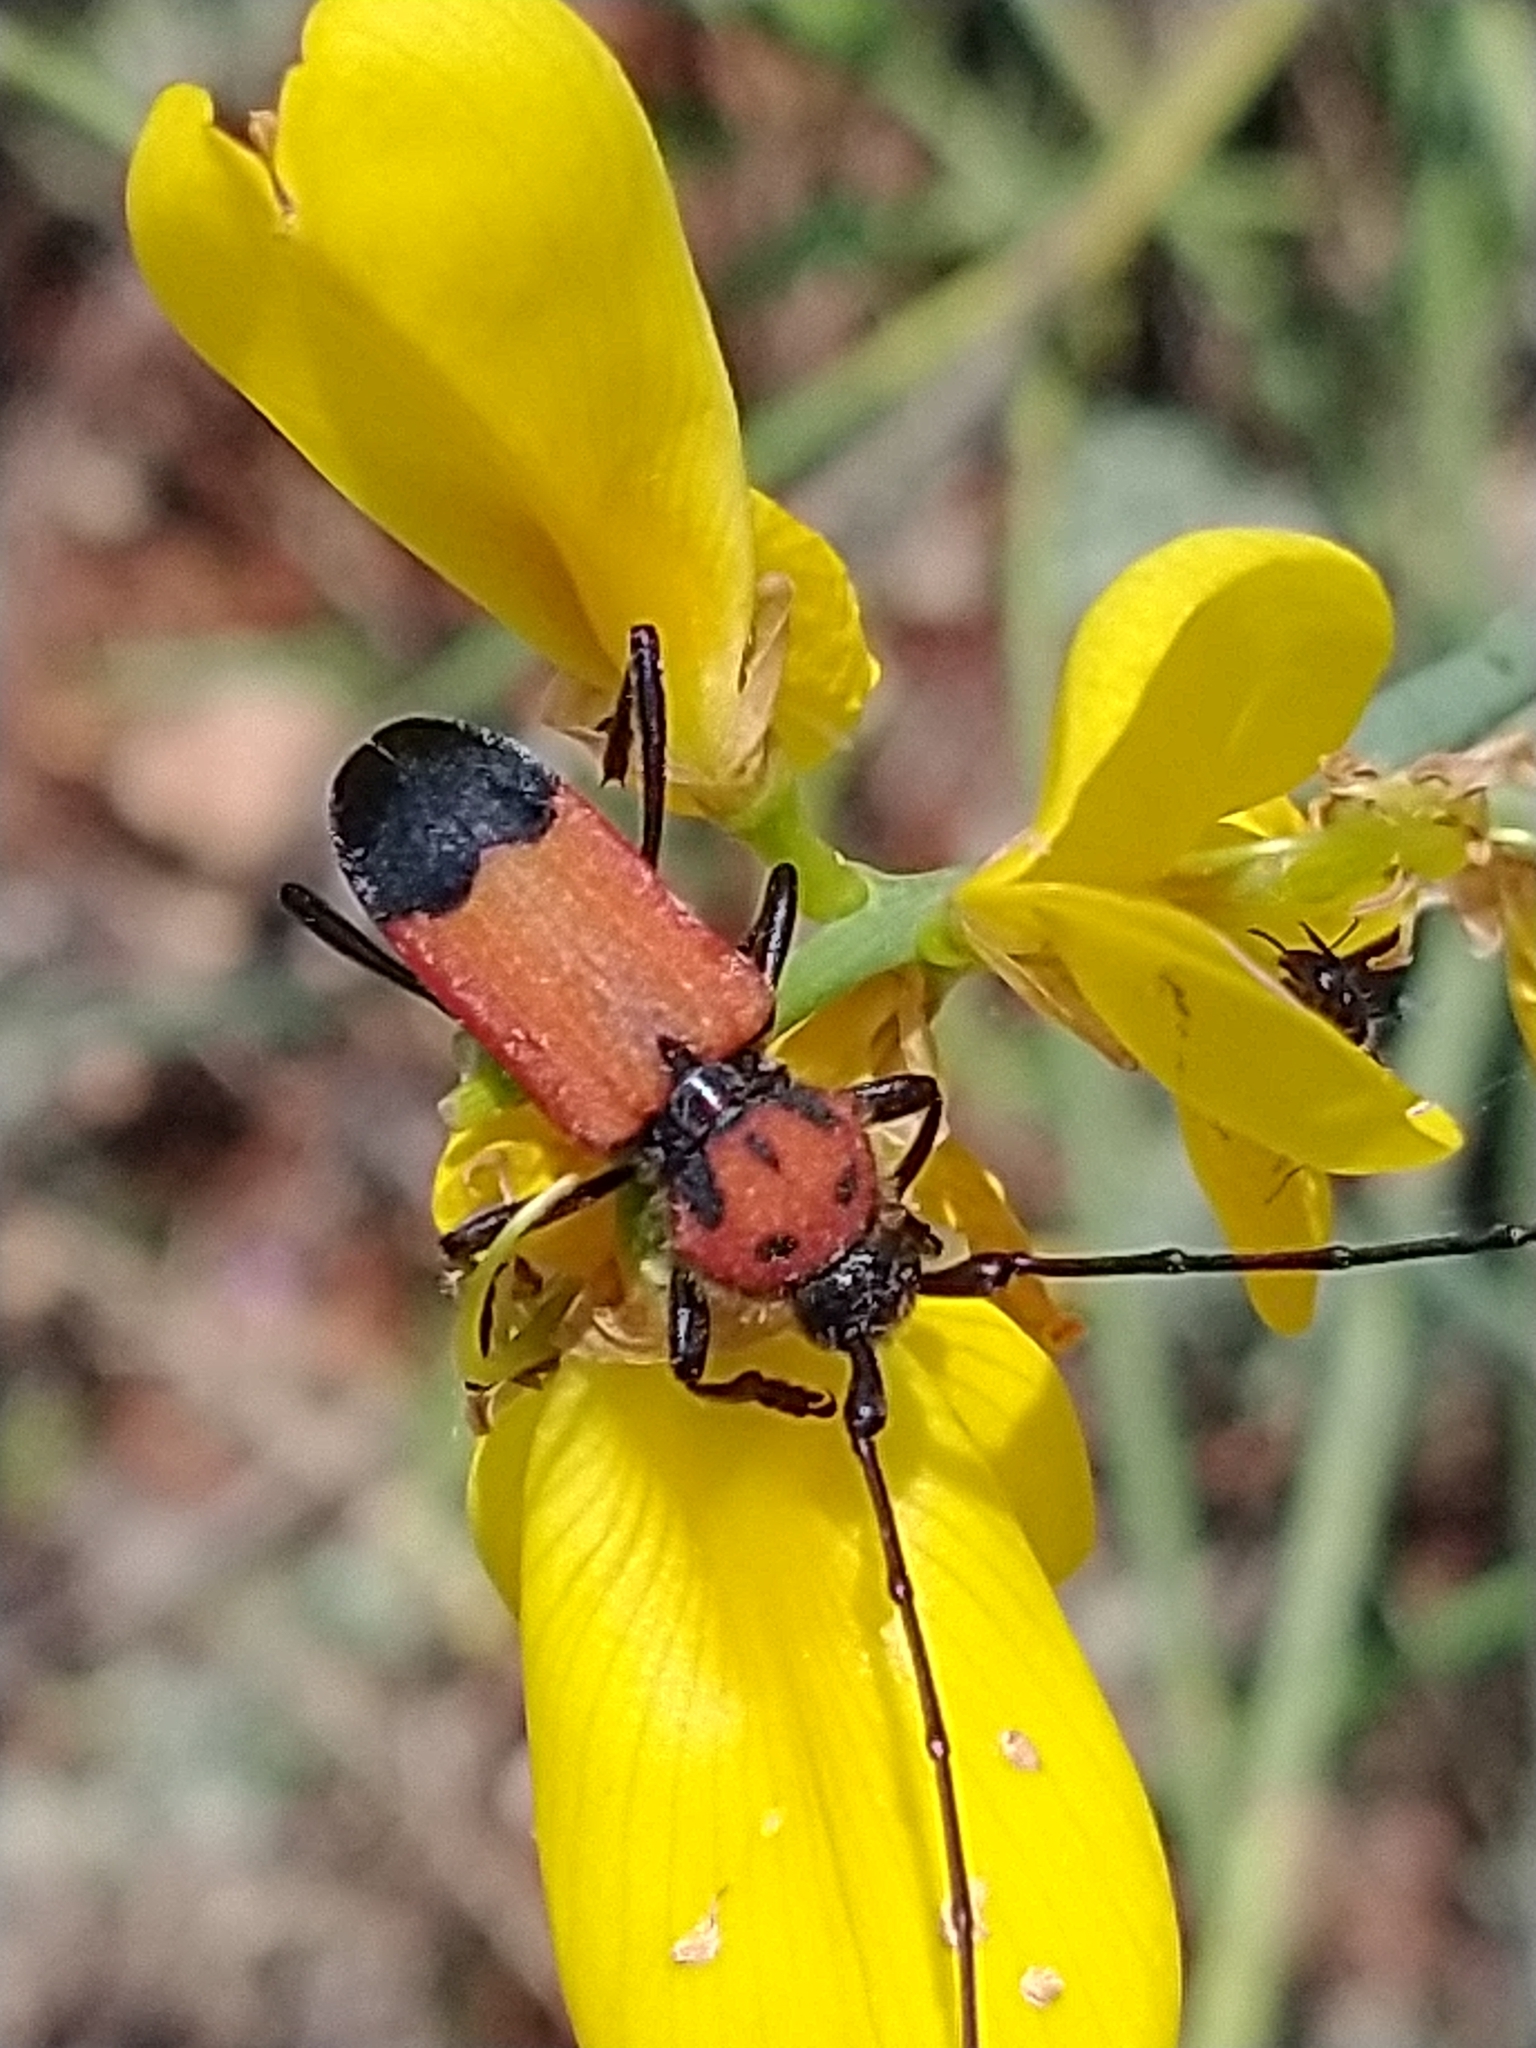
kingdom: Animalia
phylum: Arthropoda
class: Insecta
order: Coleoptera
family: Cerambycidae
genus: Purpuricenus
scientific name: Purpuricenus desfontainii
